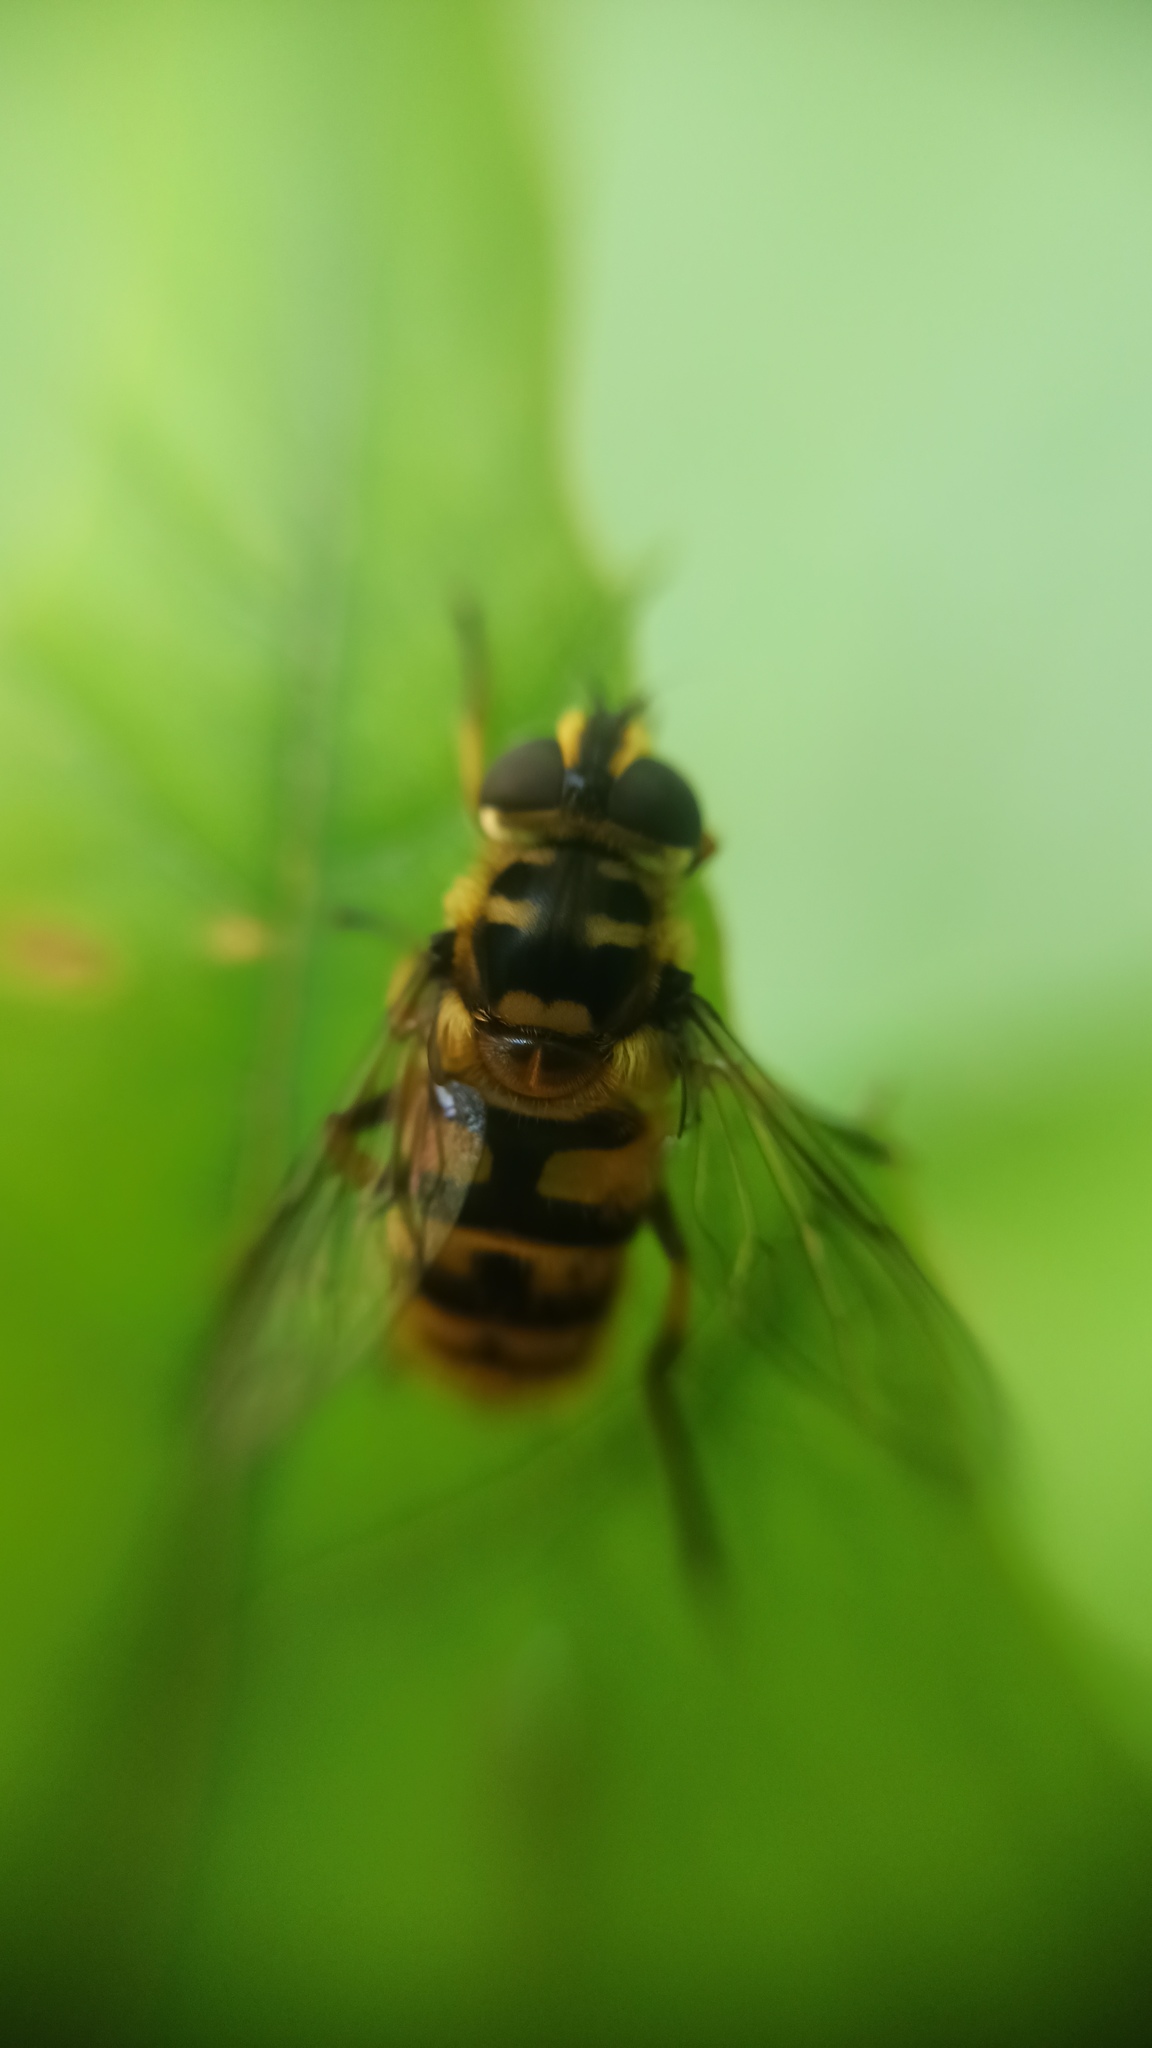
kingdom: Animalia
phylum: Arthropoda
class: Insecta
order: Diptera
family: Syrphidae
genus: Myathropa
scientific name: Myathropa florea
